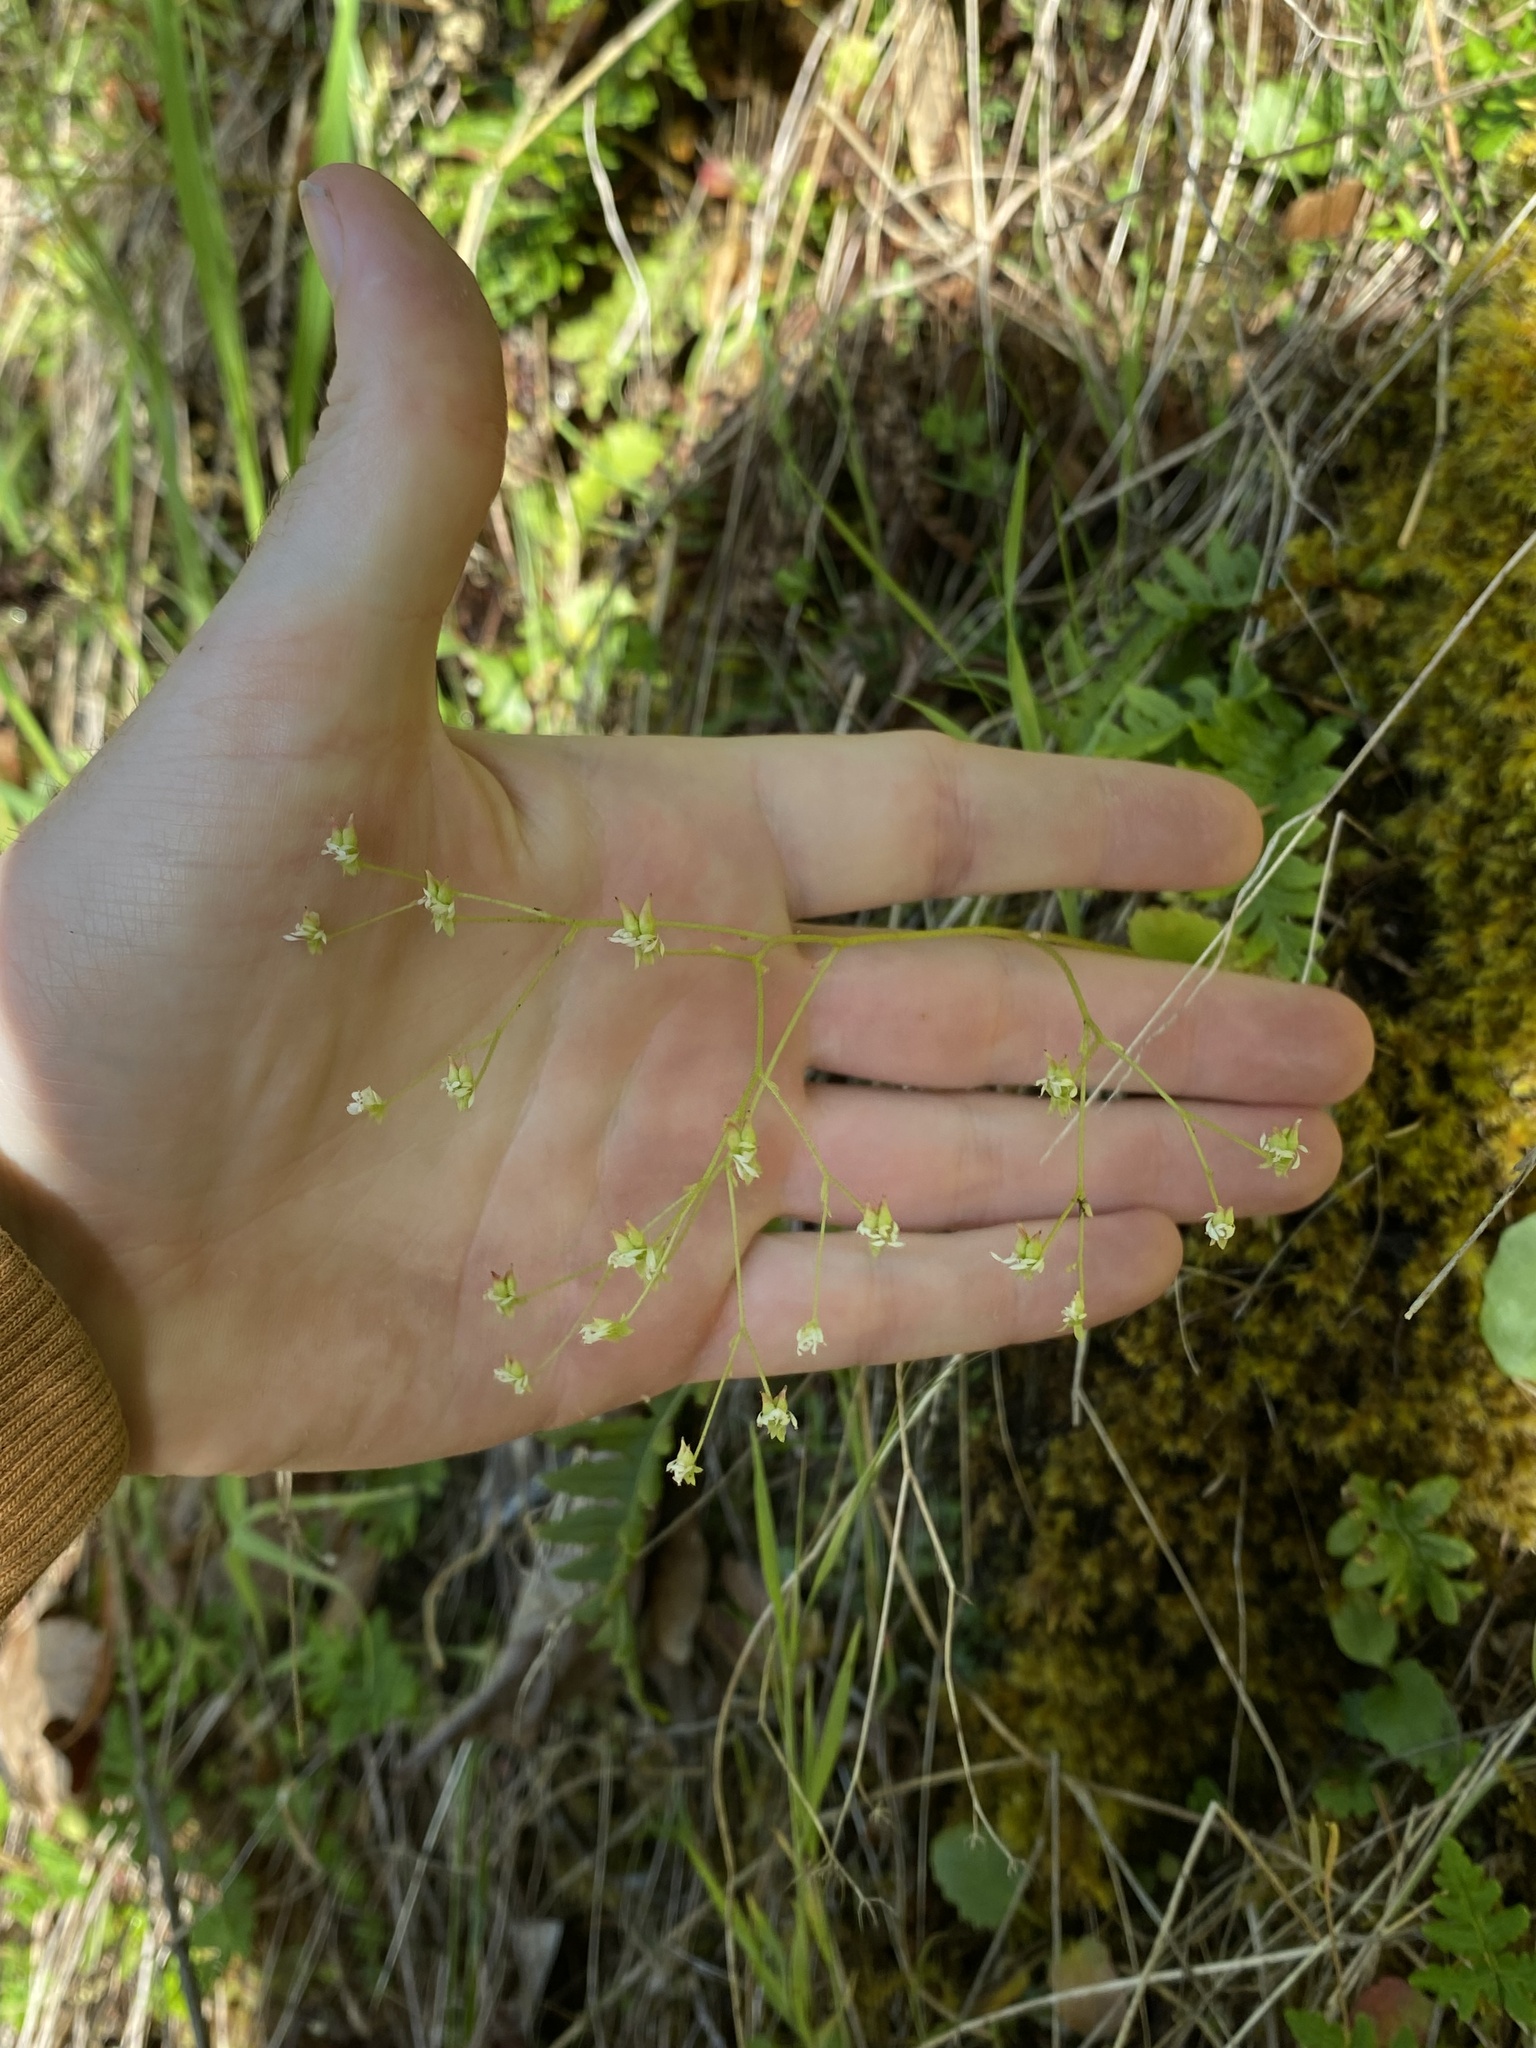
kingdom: Plantae
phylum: Tracheophyta
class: Magnoliopsida
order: Saxifragales
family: Saxifragaceae
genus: Micranthes
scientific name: Micranthes marshallii
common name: Marshall's saxifrage
